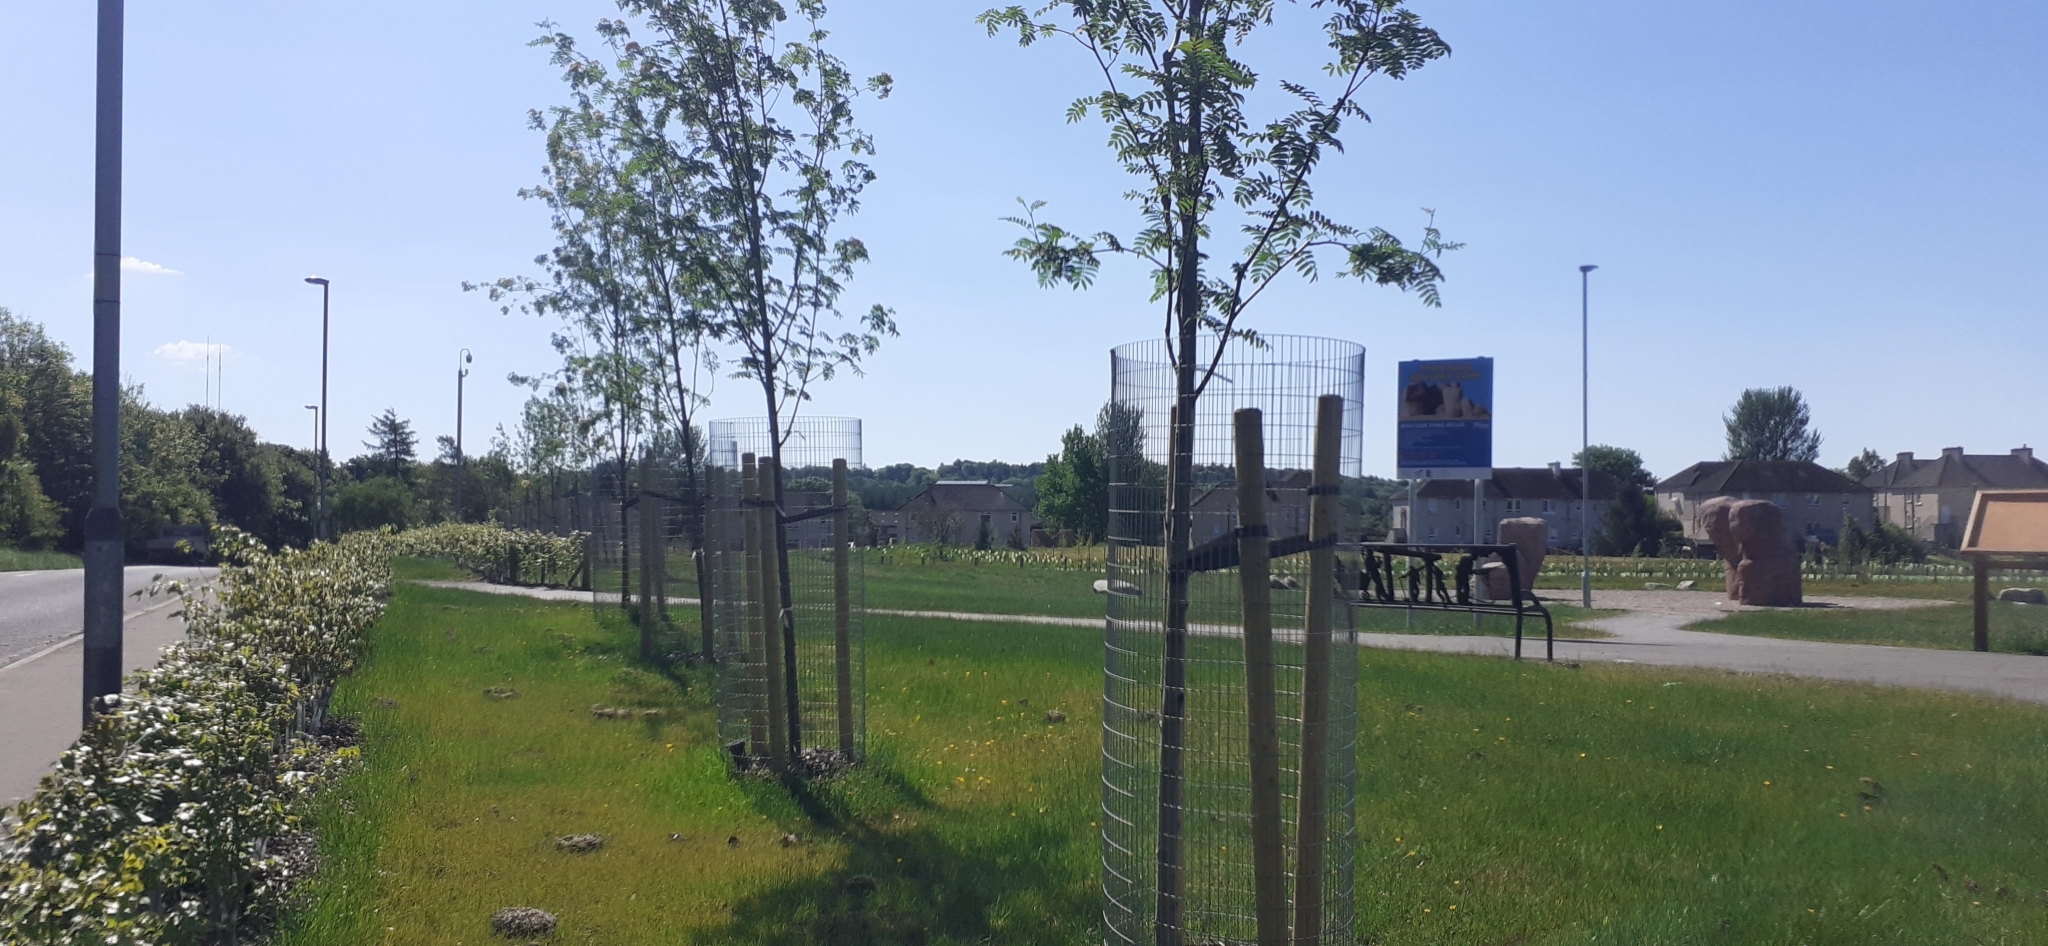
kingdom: Plantae
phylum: Tracheophyta
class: Magnoliopsida
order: Rosales
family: Rosaceae
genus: Sorbus
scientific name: Sorbus aucuparia
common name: Rowan
